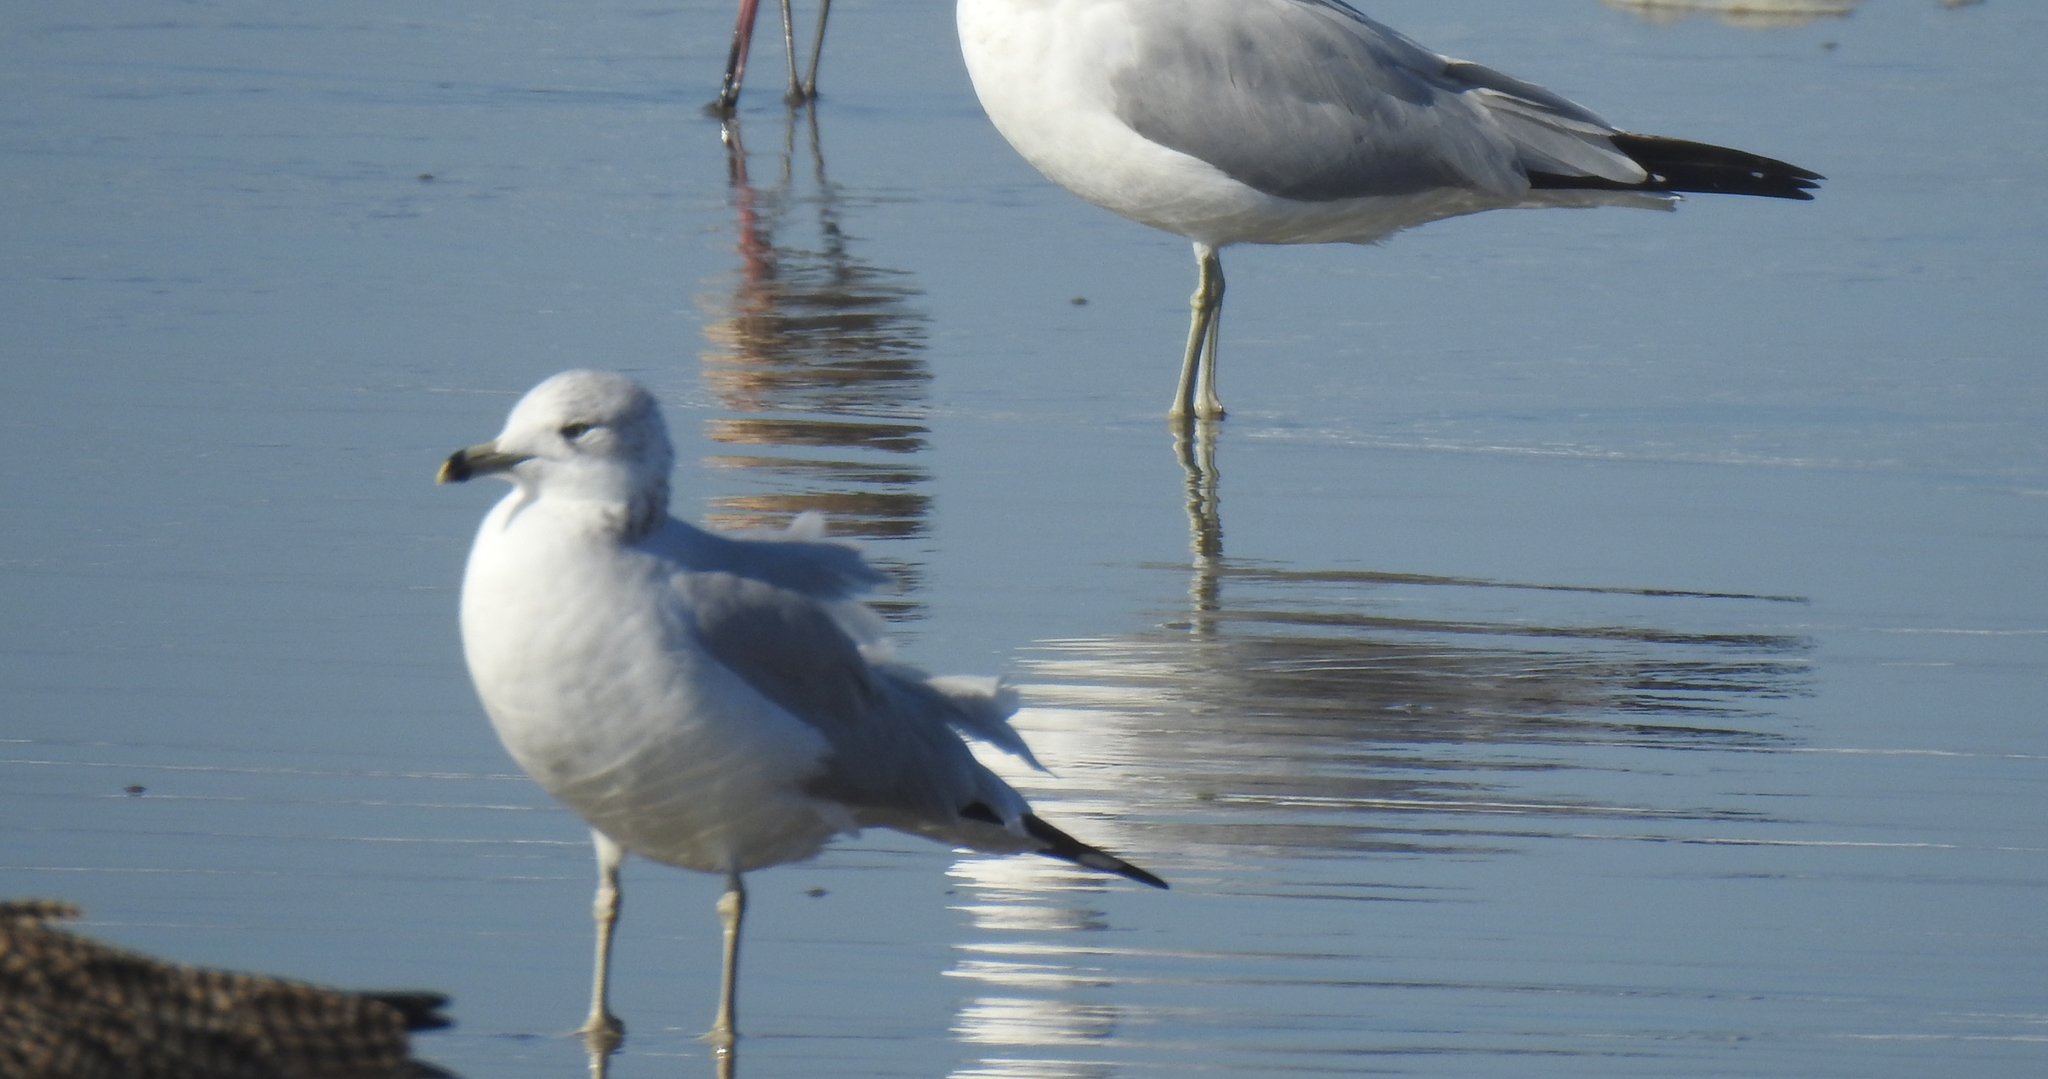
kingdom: Animalia
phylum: Chordata
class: Aves
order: Charadriiformes
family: Laridae
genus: Larus
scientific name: Larus delawarensis
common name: Ring-billed gull
